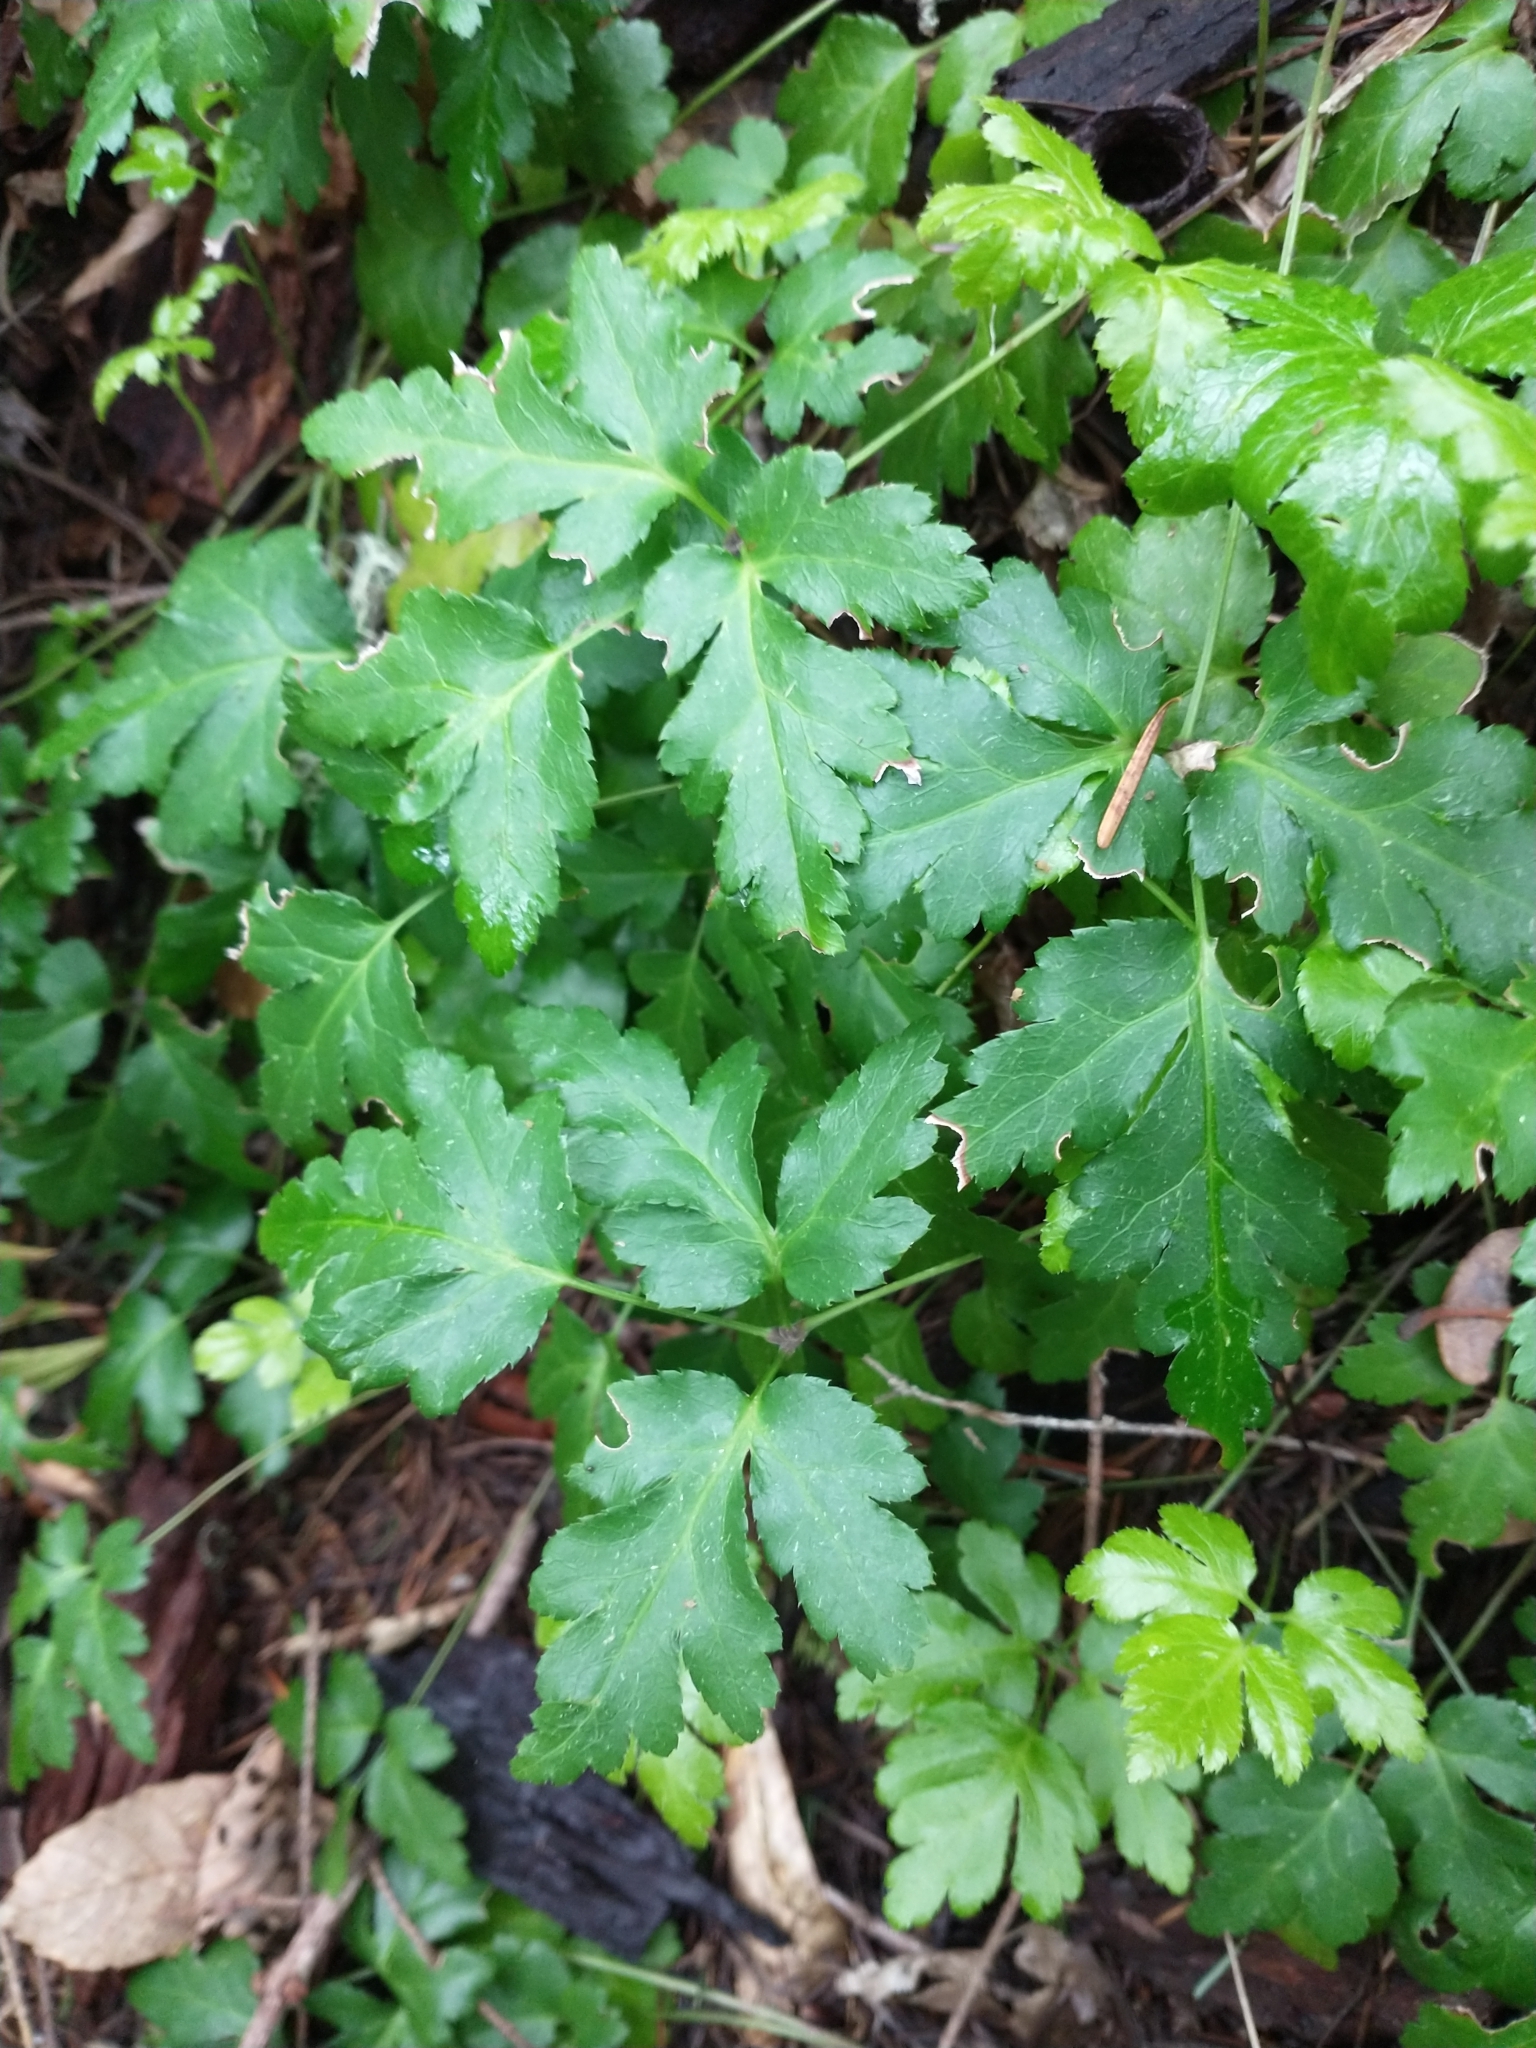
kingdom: Plantae
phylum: Tracheophyta
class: Magnoliopsida
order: Ranunculales
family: Ranunculaceae
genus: Coptis
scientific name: Coptis laciniata
